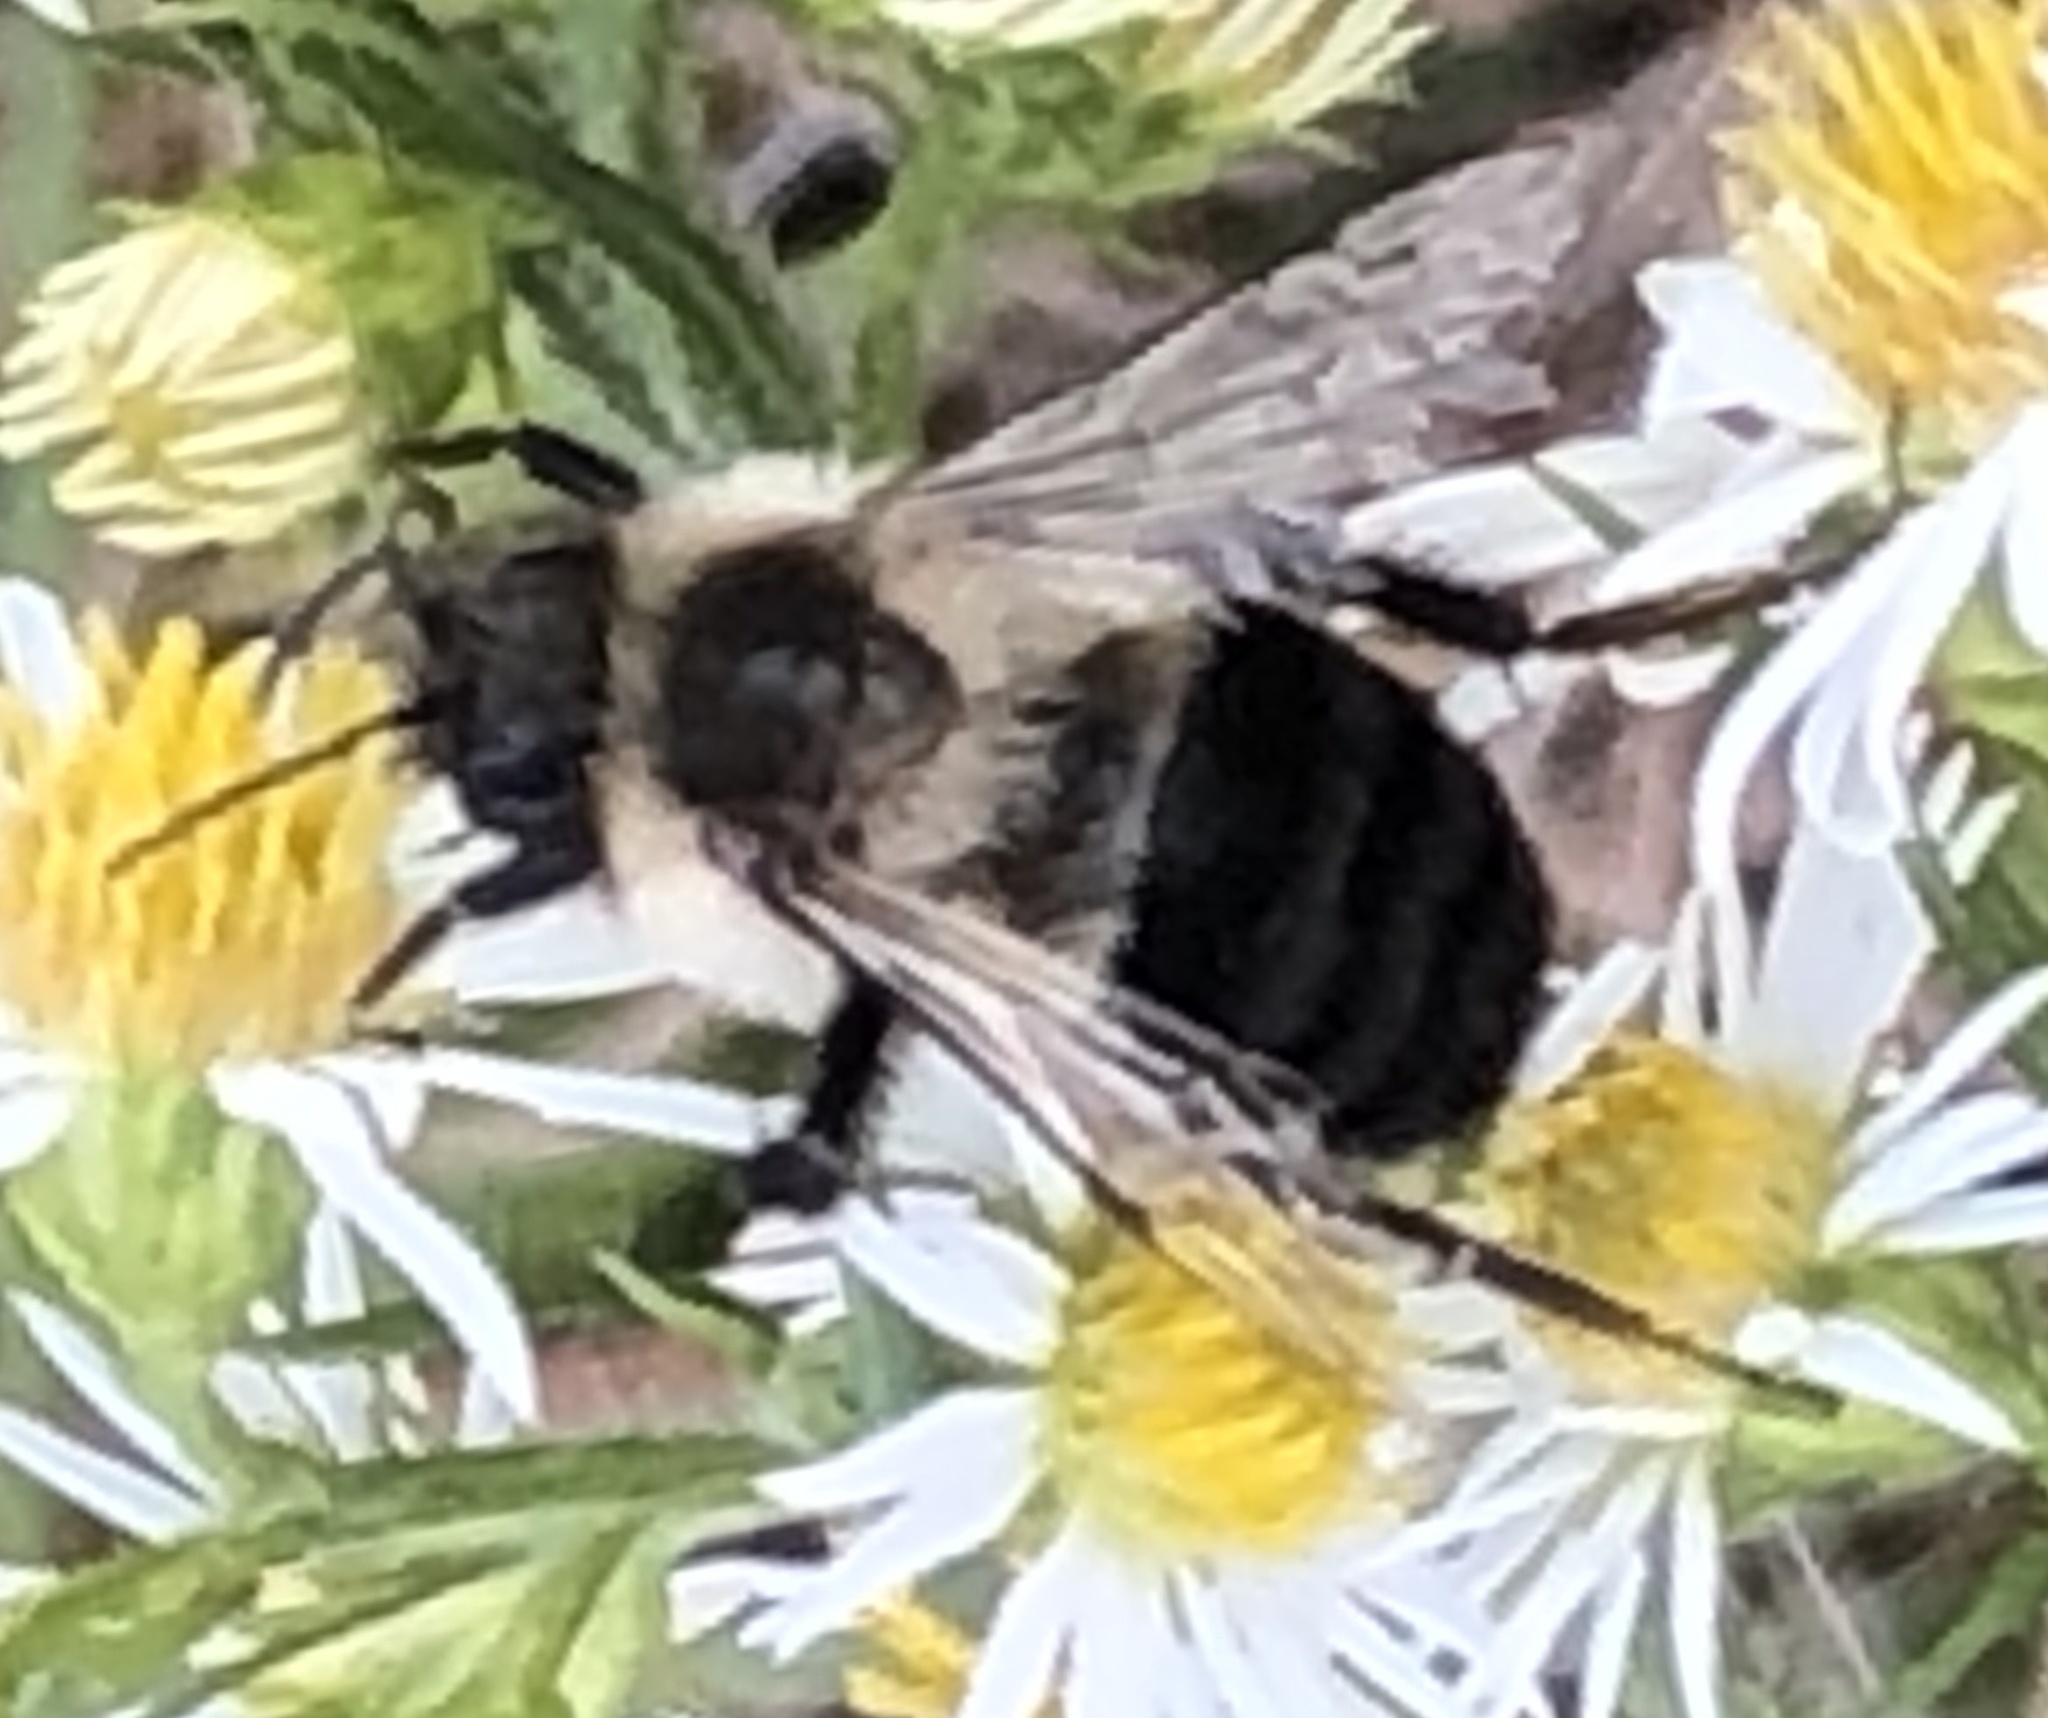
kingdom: Animalia
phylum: Arthropoda
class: Insecta
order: Hymenoptera
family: Apidae
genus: Bombus
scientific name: Bombus impatiens
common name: Common eastern bumble bee
